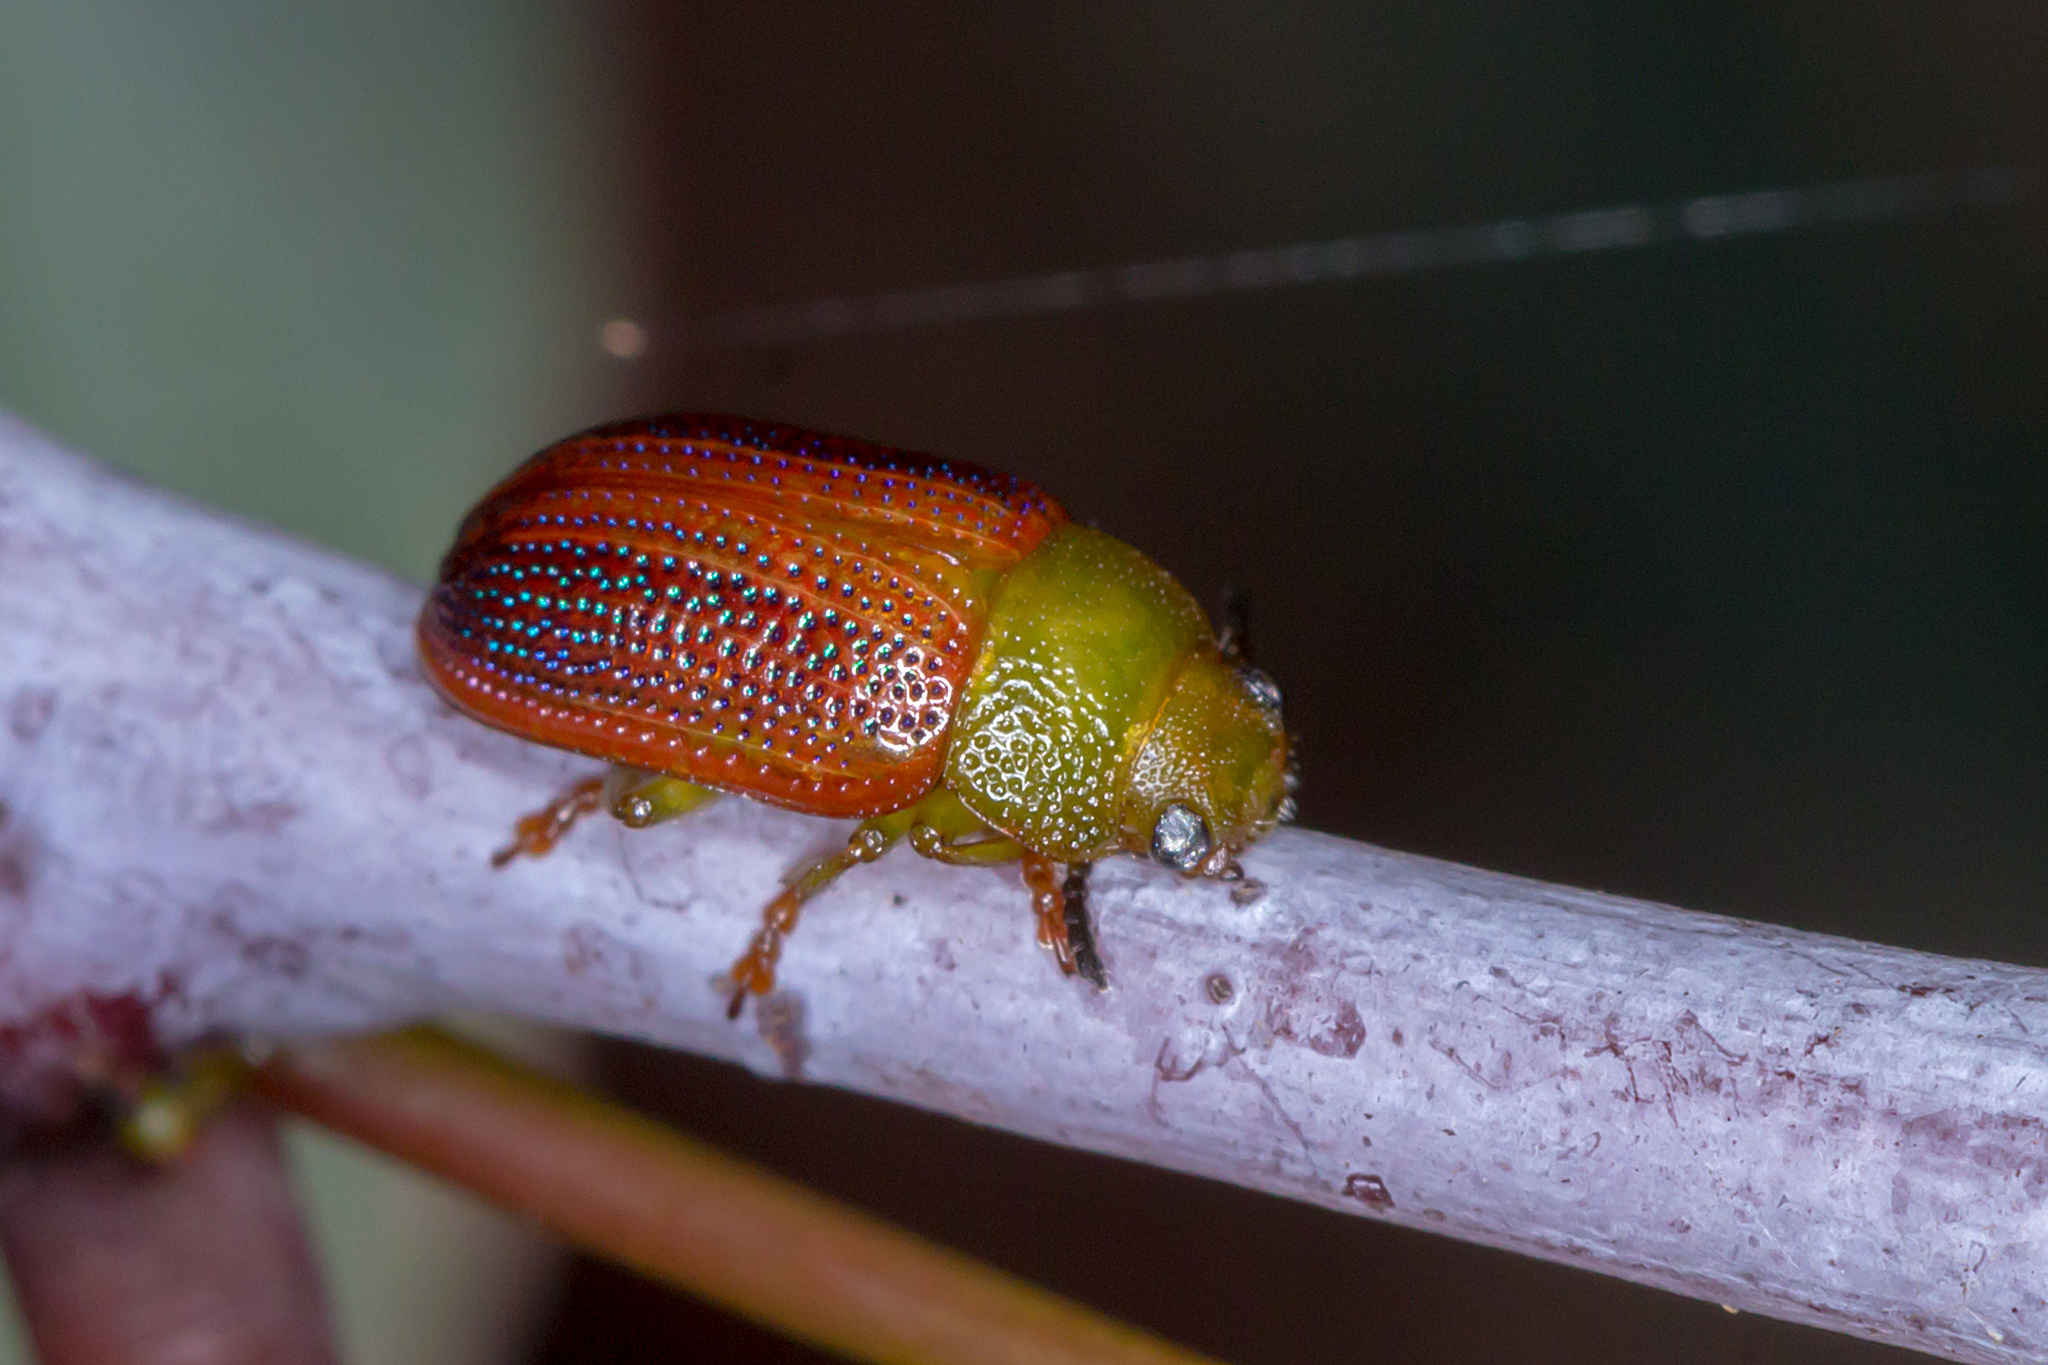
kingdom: Animalia
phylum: Arthropoda
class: Insecta
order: Coleoptera
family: Chrysomelidae
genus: Calomela
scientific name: Calomela
